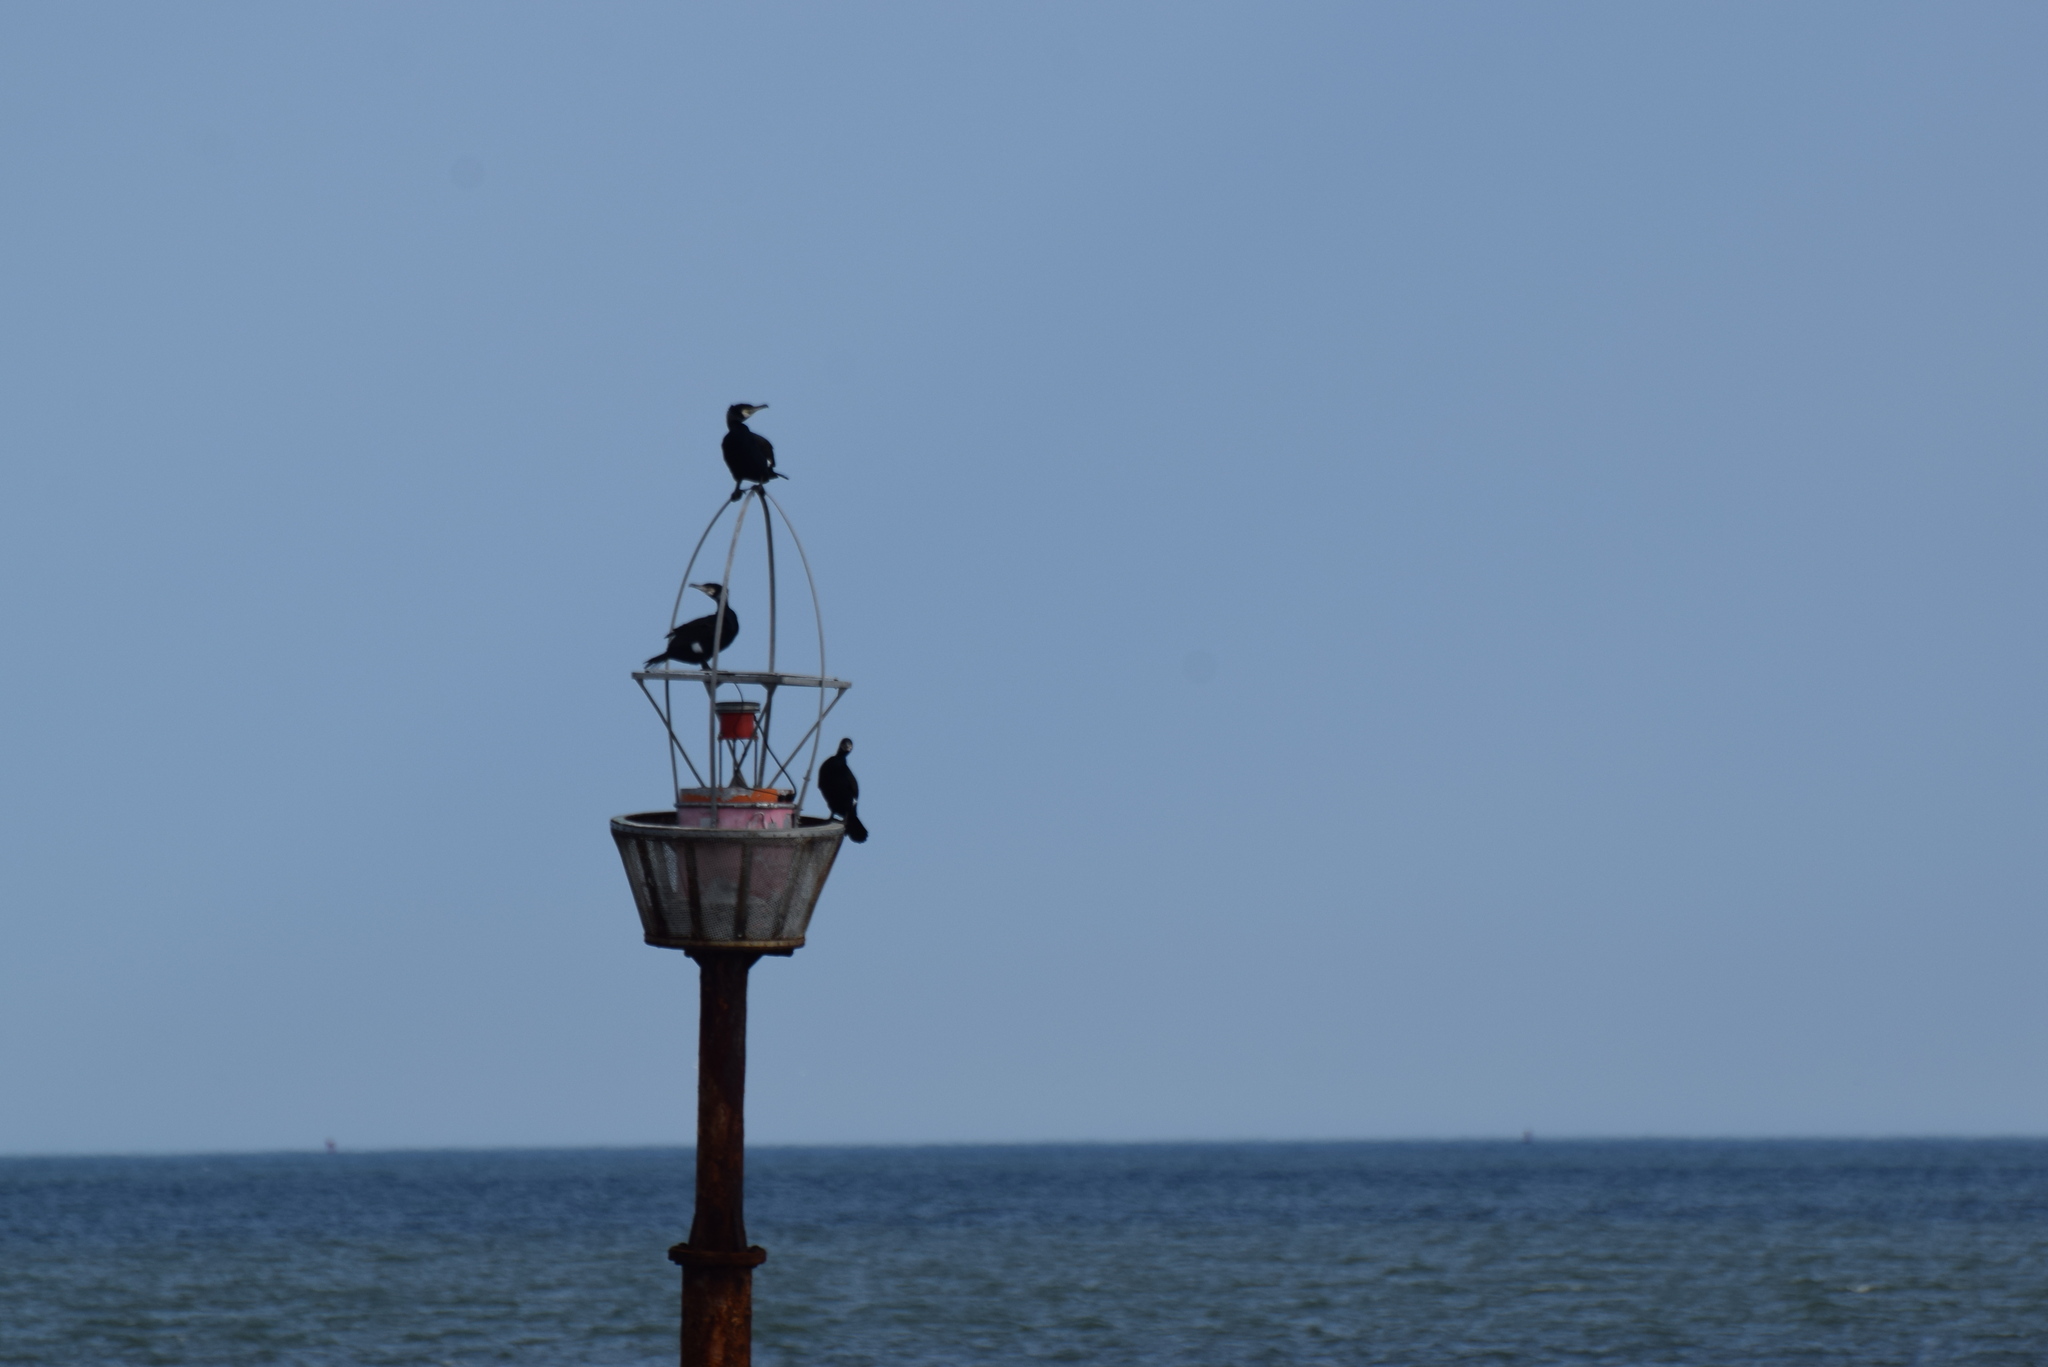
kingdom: Animalia
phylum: Chordata
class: Aves
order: Suliformes
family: Phalacrocoracidae
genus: Phalacrocorax
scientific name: Phalacrocorax carbo
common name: Great cormorant
